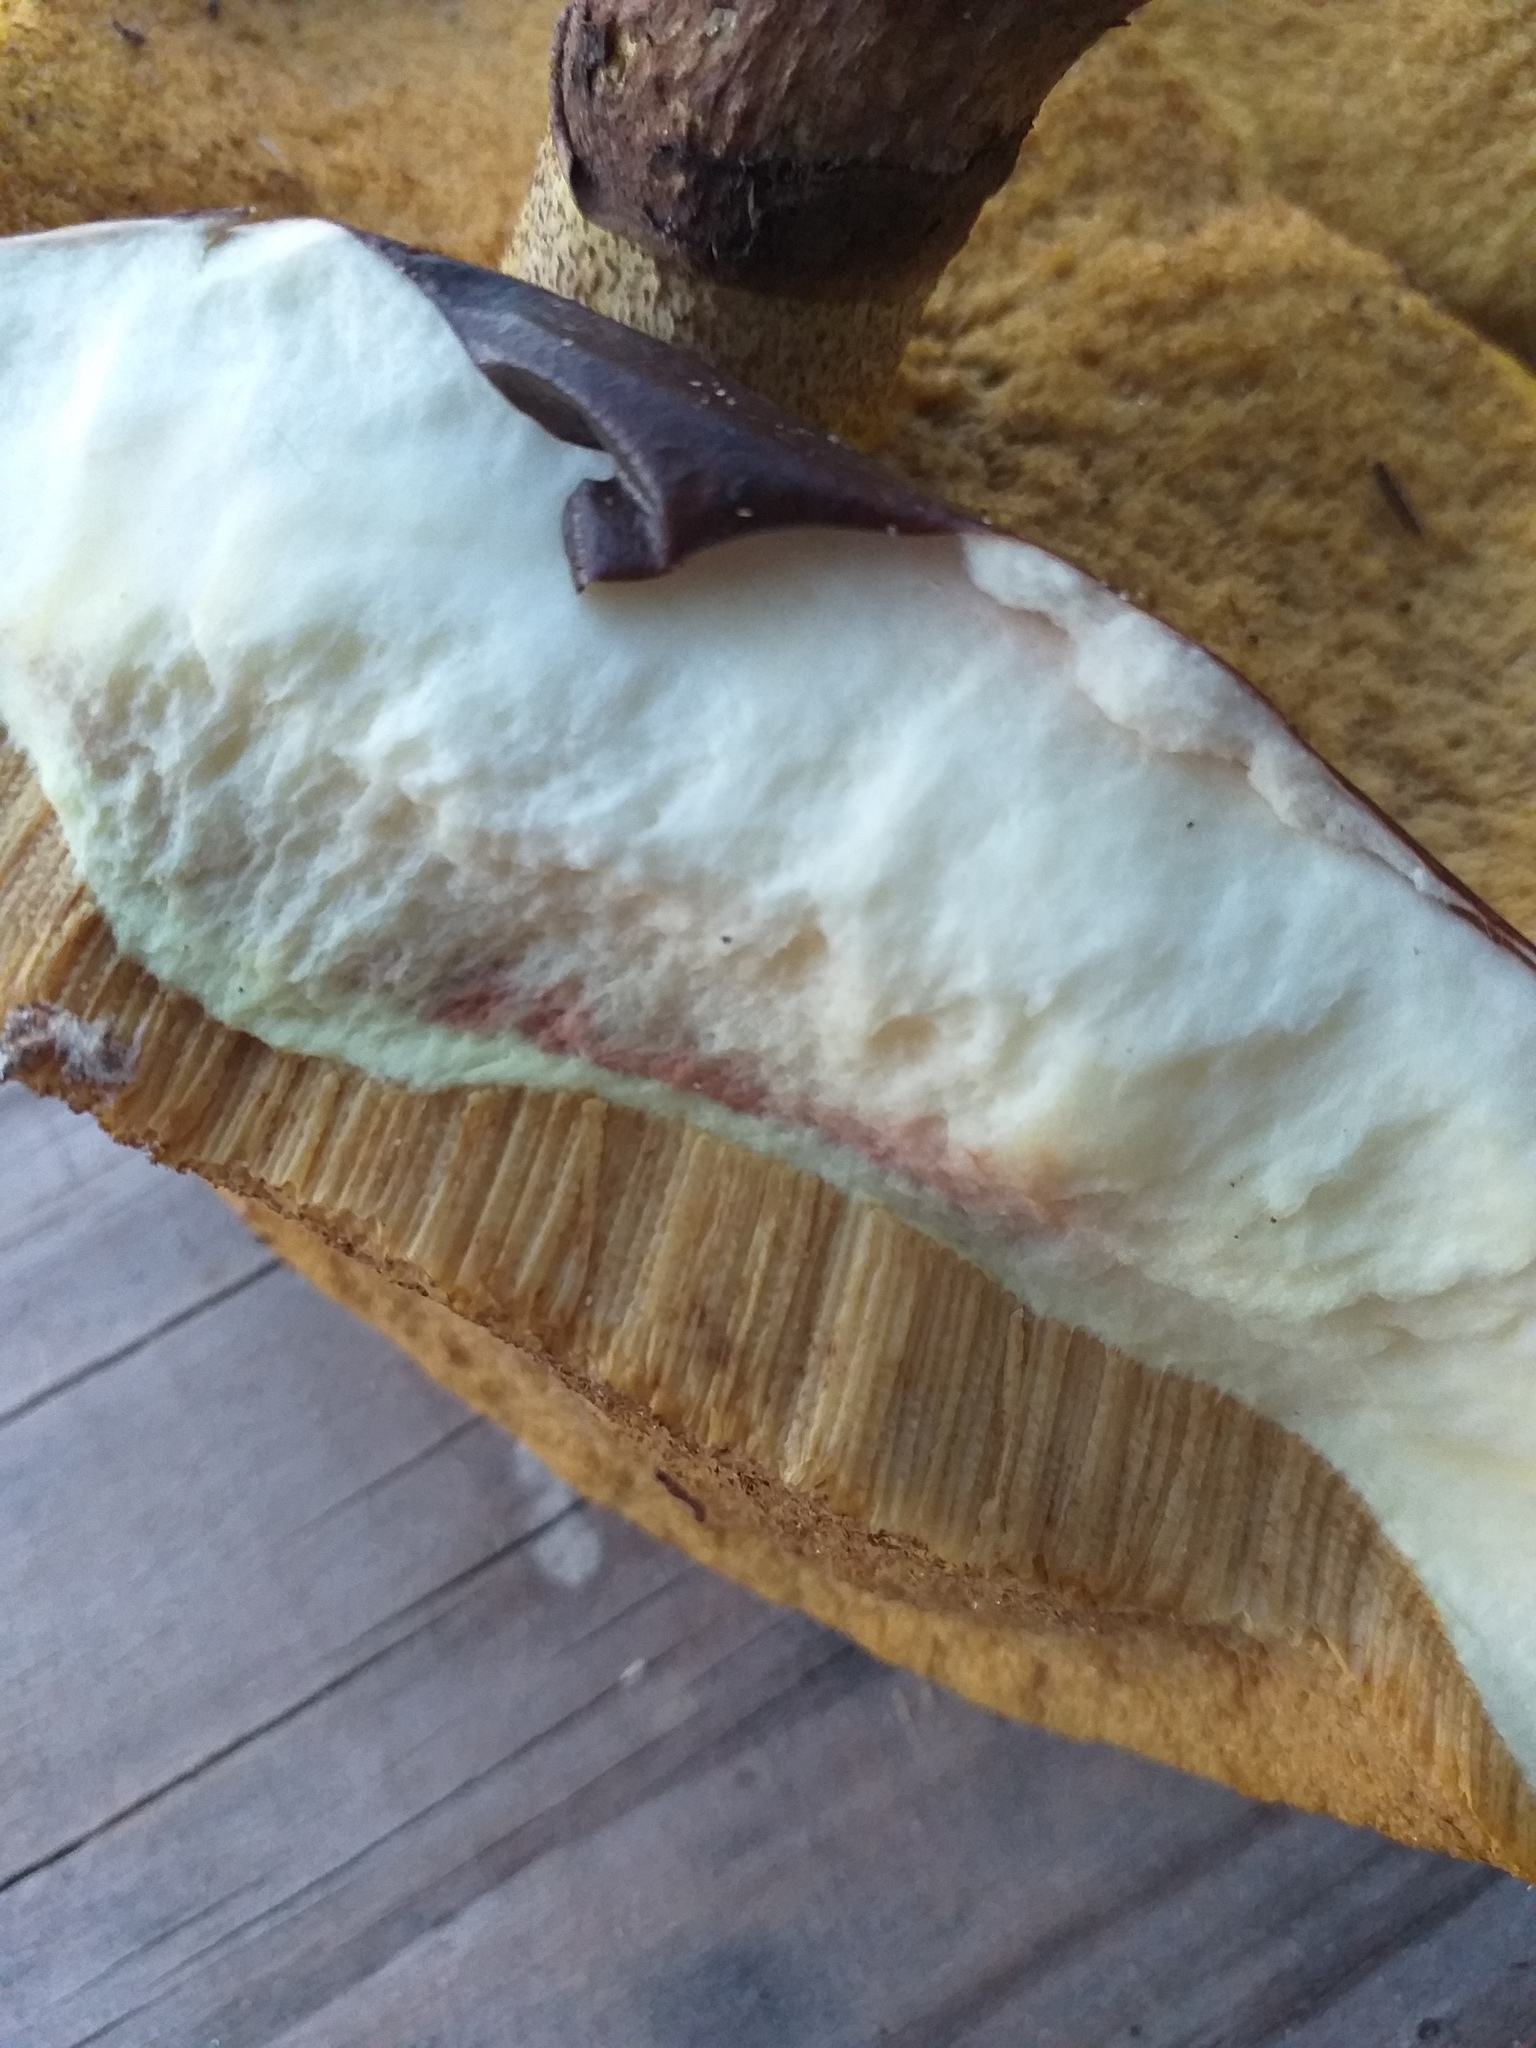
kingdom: Fungi
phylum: Basidiomycota
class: Agaricomycetes
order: Boletales
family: Suillaceae
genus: Suillus
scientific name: Suillus luteus
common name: Slippery jack
